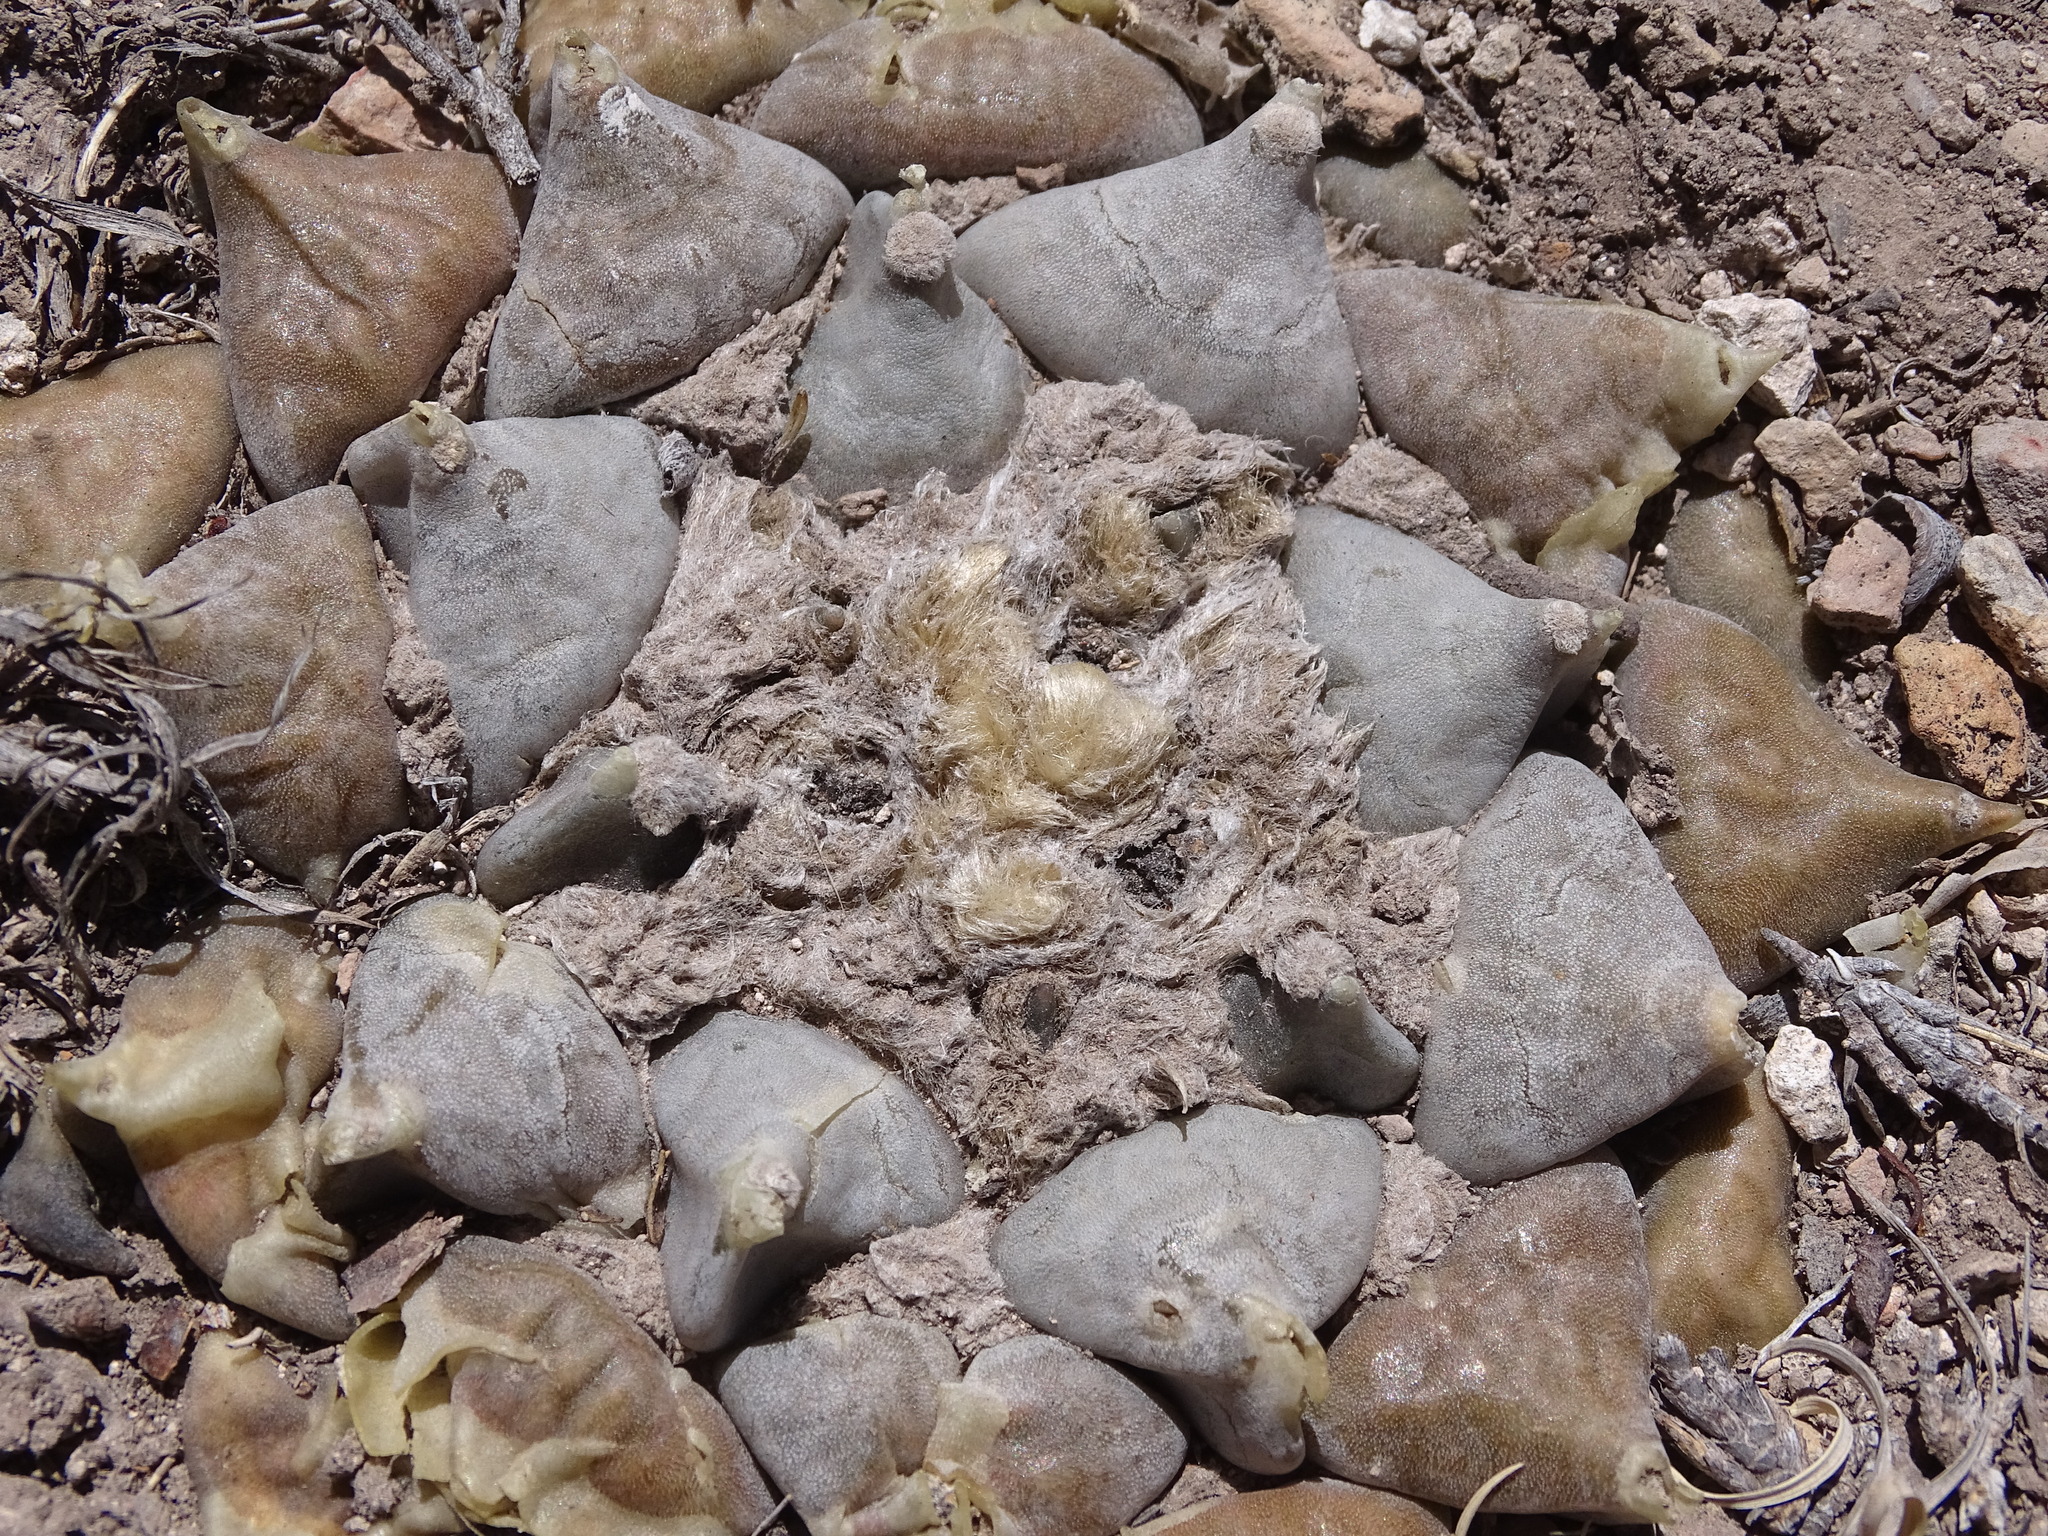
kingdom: Plantae
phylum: Tracheophyta
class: Magnoliopsida
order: Caryophyllales
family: Cactaceae
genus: Ariocarpus
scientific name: Ariocarpus retusus
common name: Seven stars
